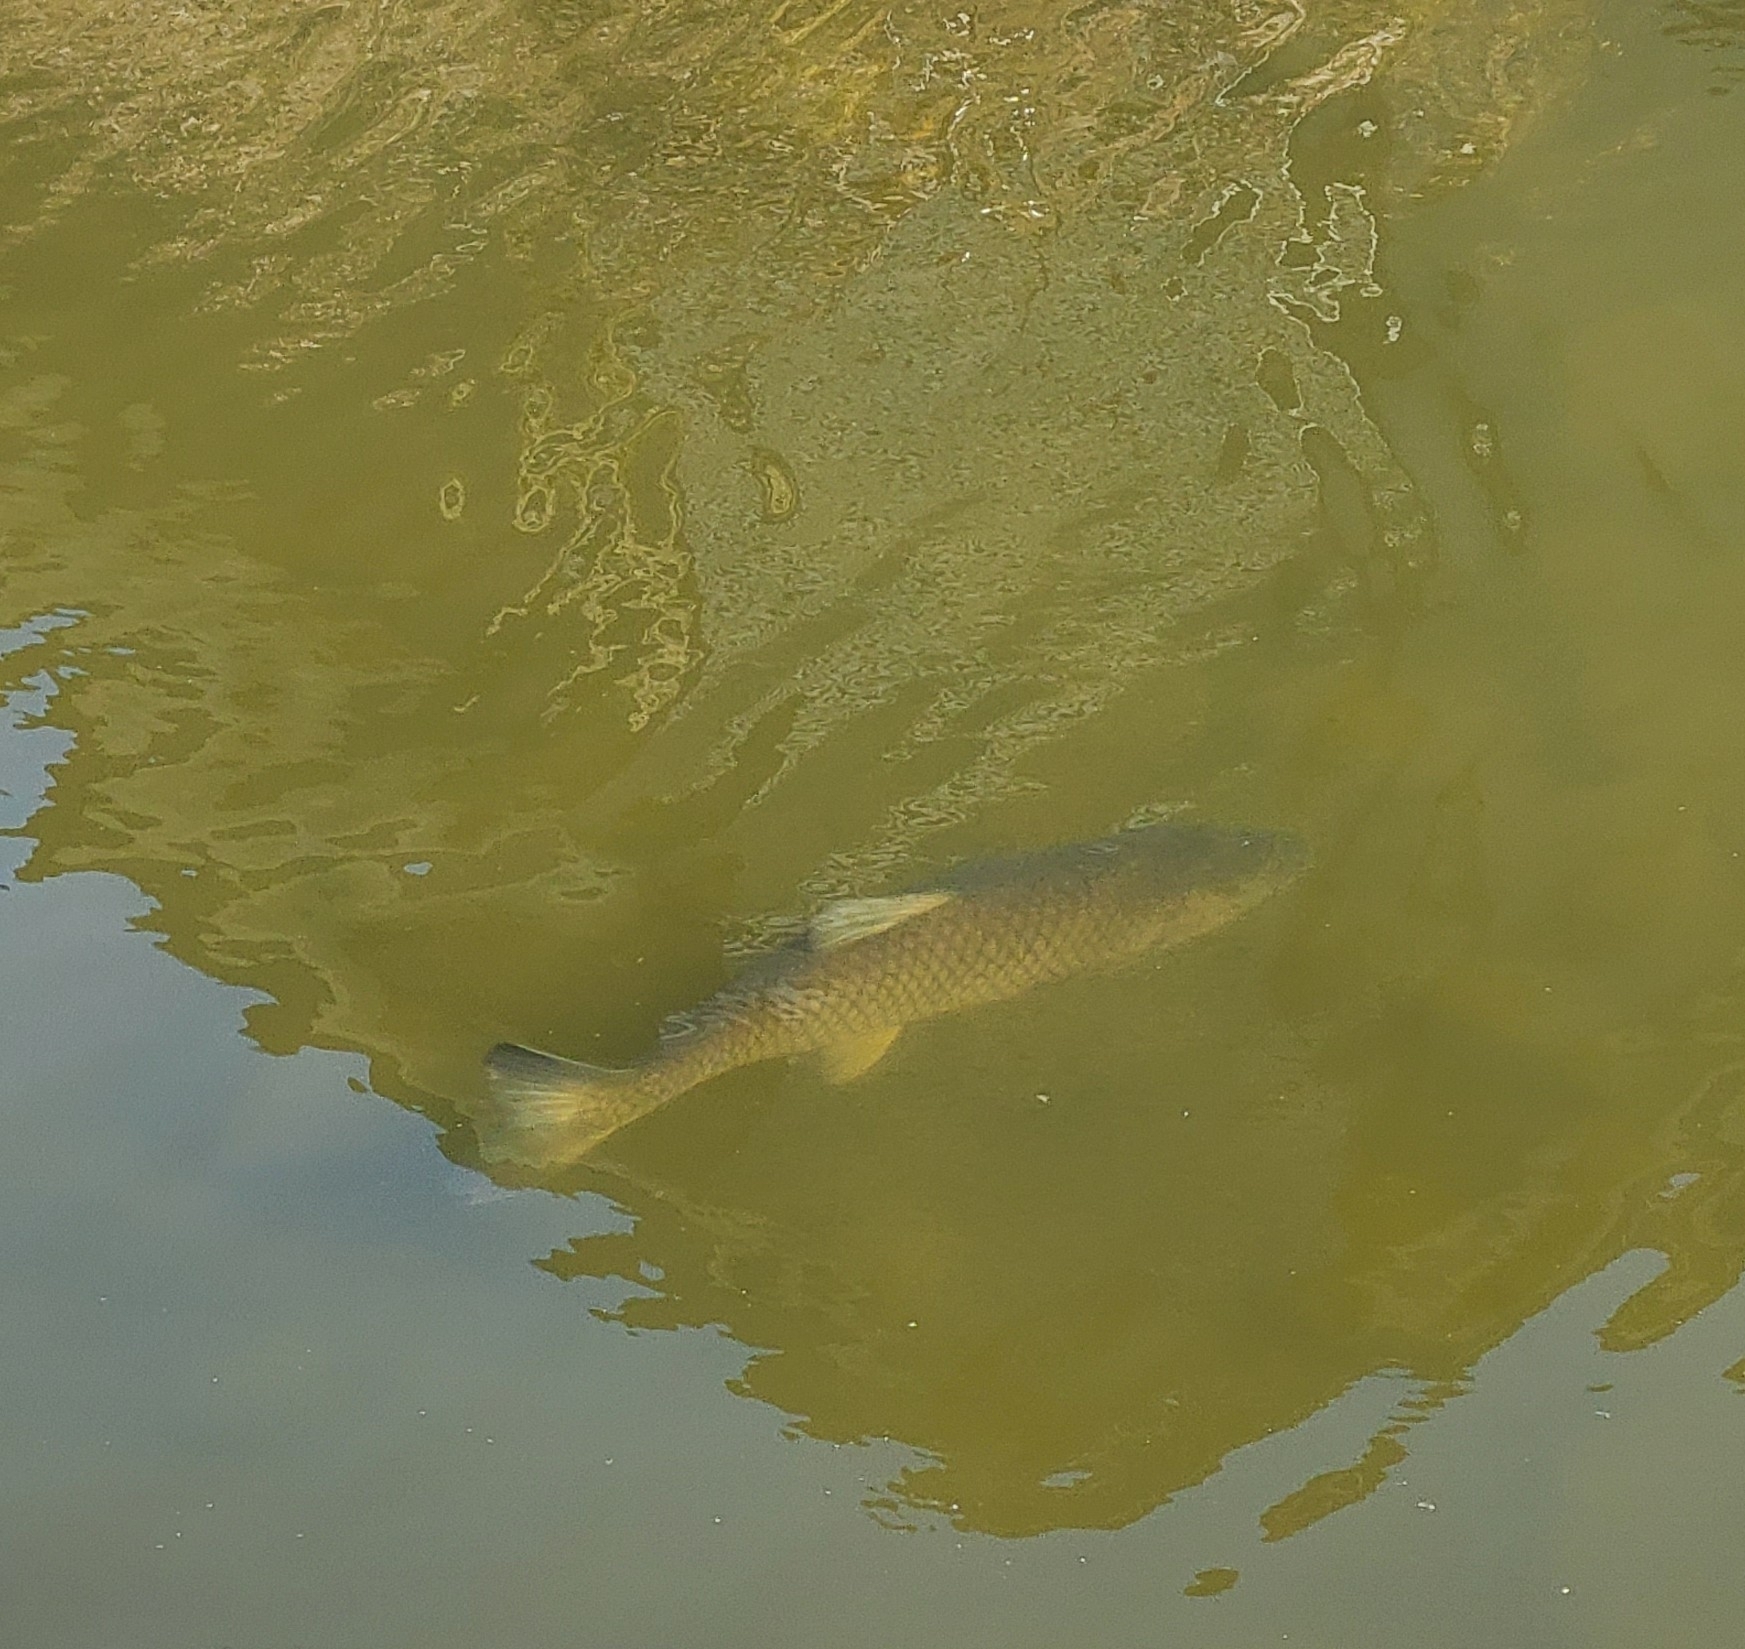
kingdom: Animalia
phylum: Chordata
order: Cypriniformes
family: Cyprinidae
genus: Ctenopharyngodon
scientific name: Ctenopharyngodon idella
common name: Grass carp
